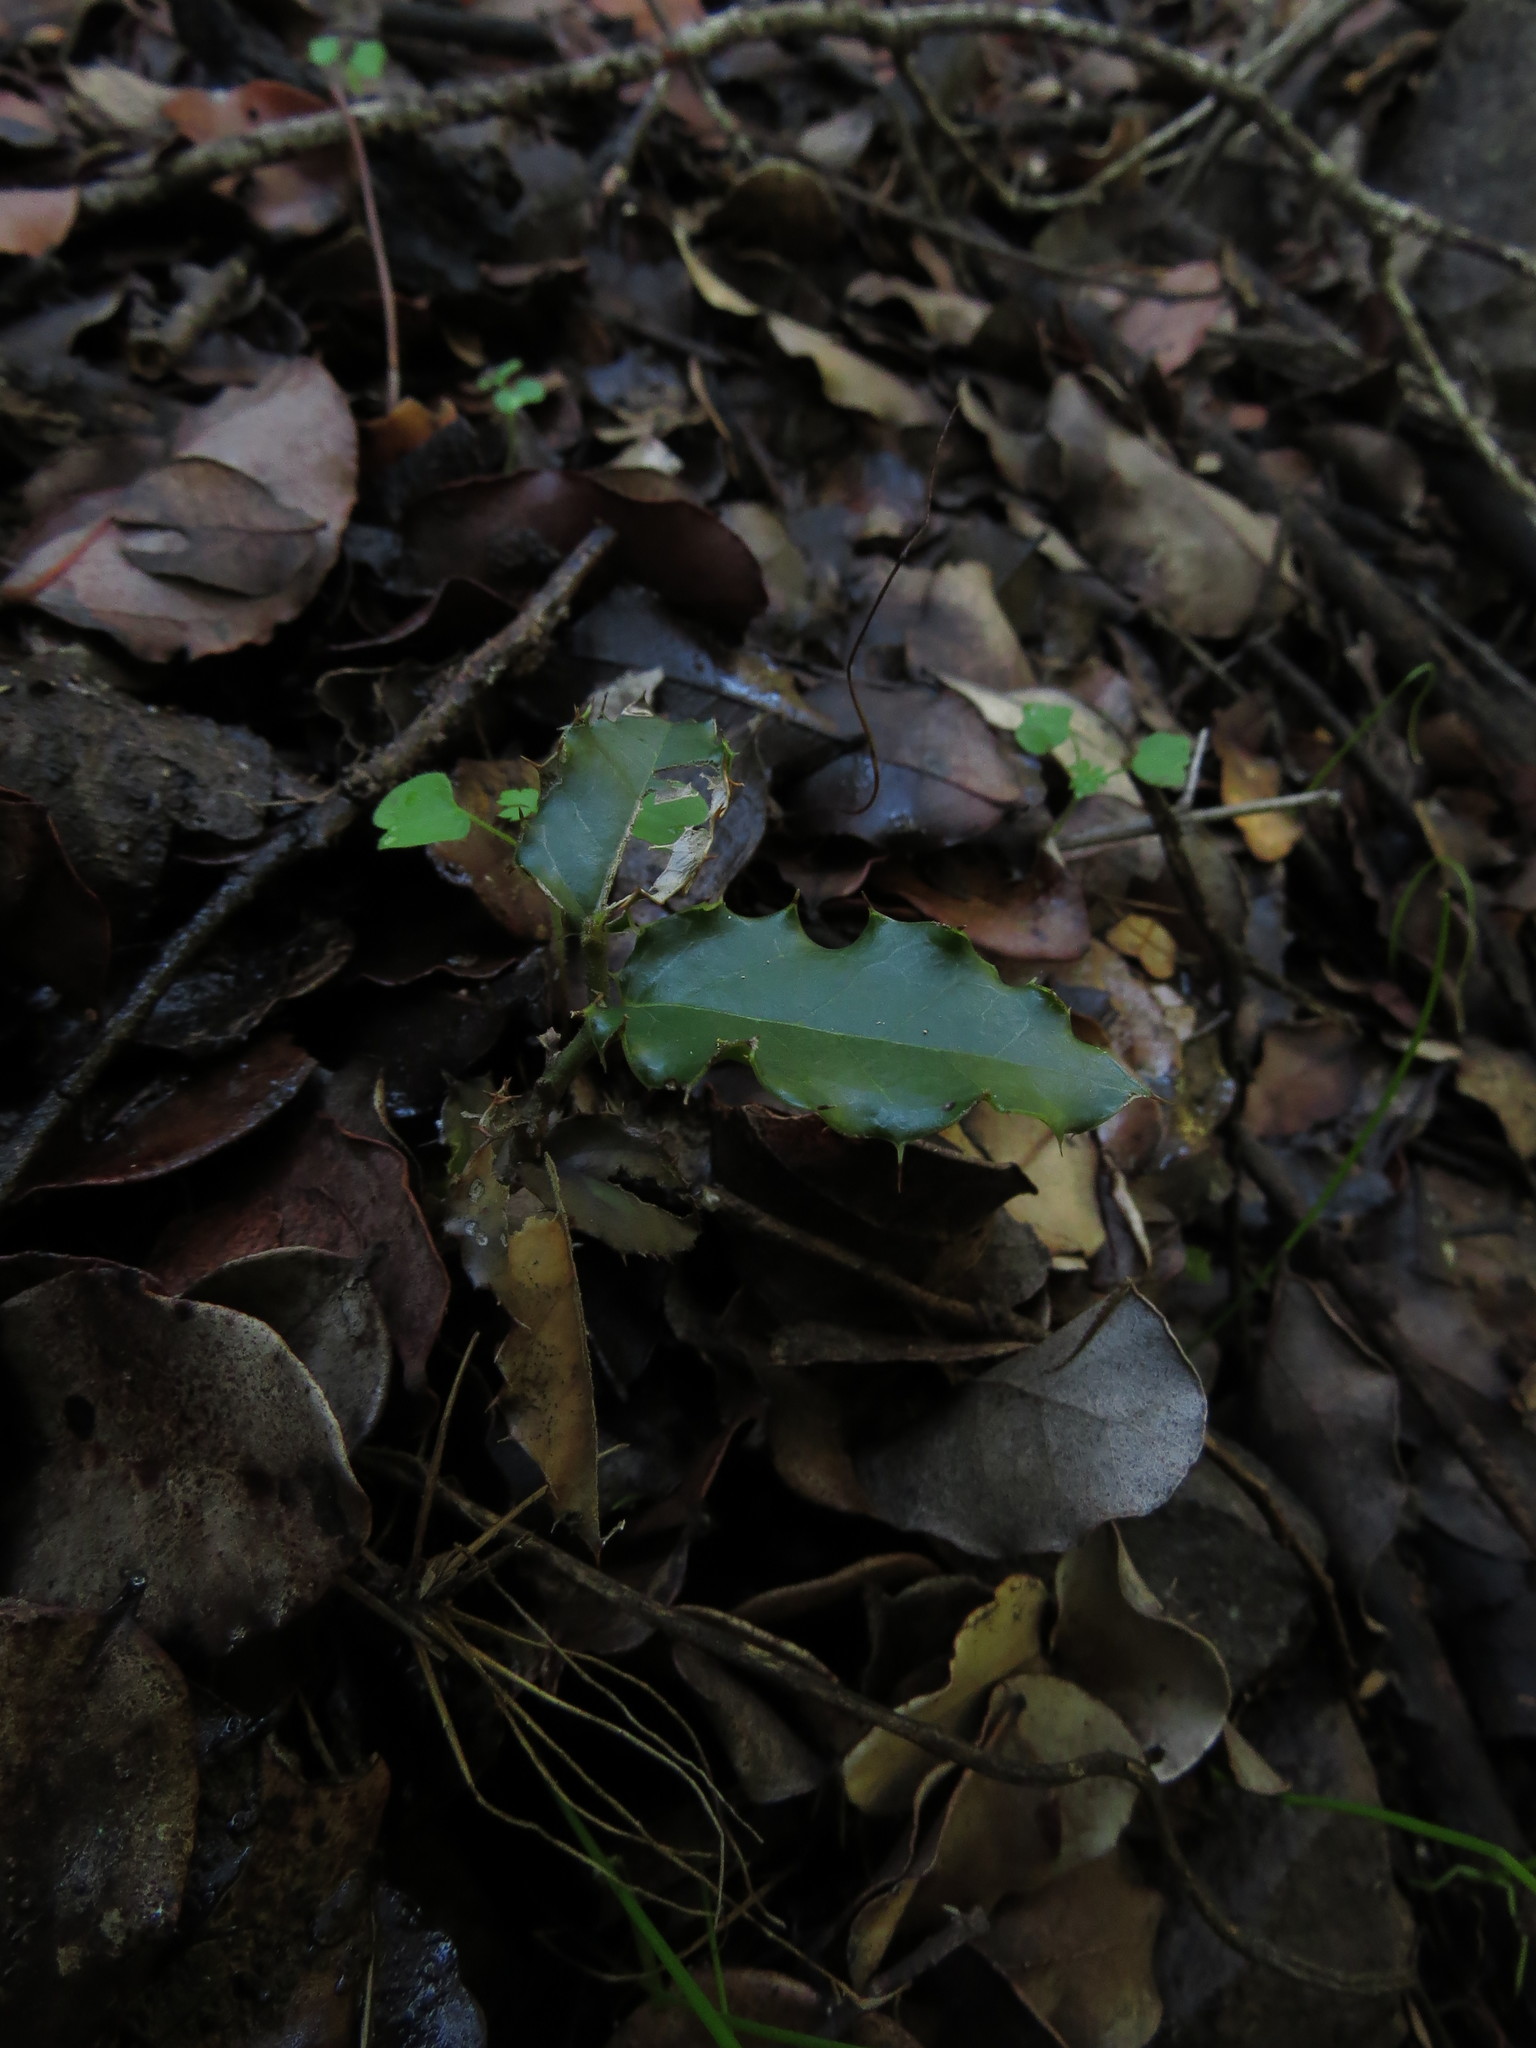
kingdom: Plantae
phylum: Tracheophyta
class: Magnoliopsida
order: Cardiopteridales
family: Cardiopteridaceae
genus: Citronella
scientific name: Citronella mucronata
